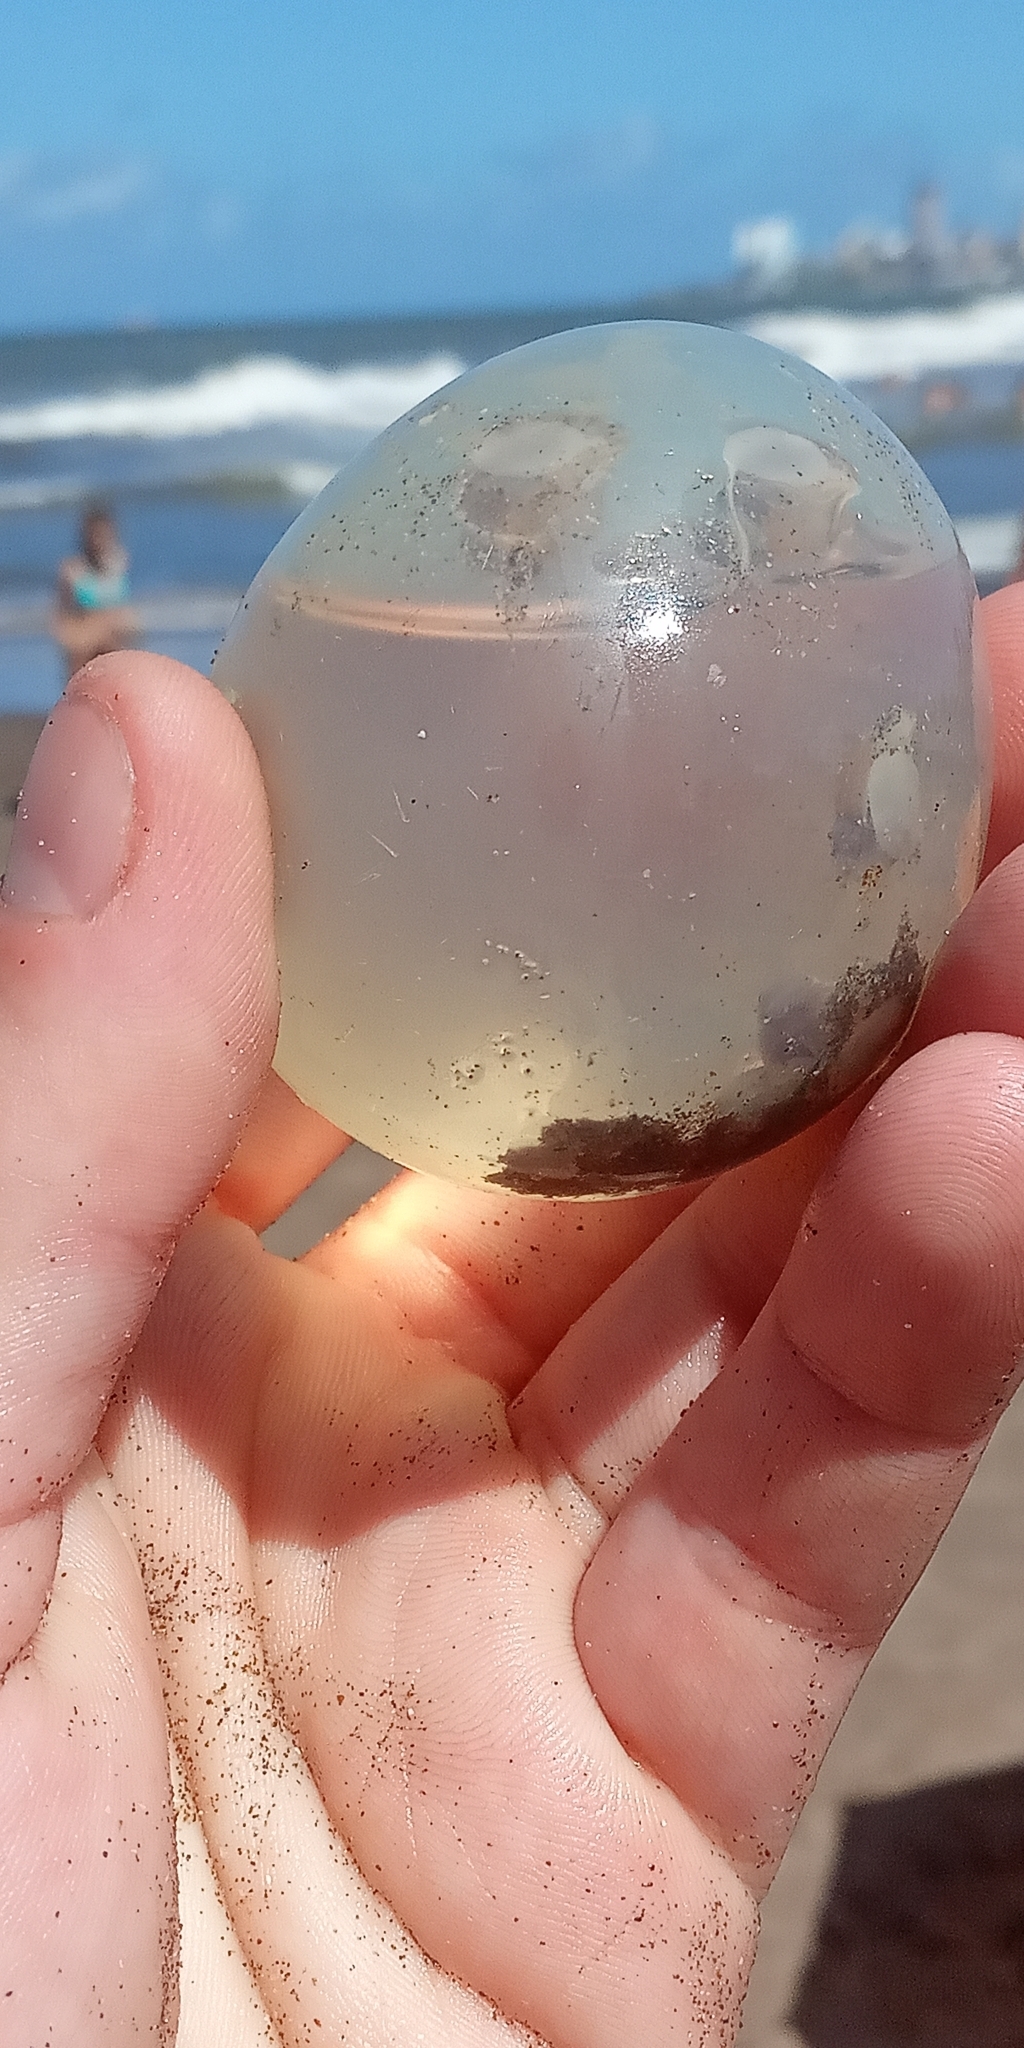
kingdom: Animalia
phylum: Mollusca
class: Gastropoda
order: Neogastropoda
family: Volutidae
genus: Pachycymbiola
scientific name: Pachycymbiola brasiliana
